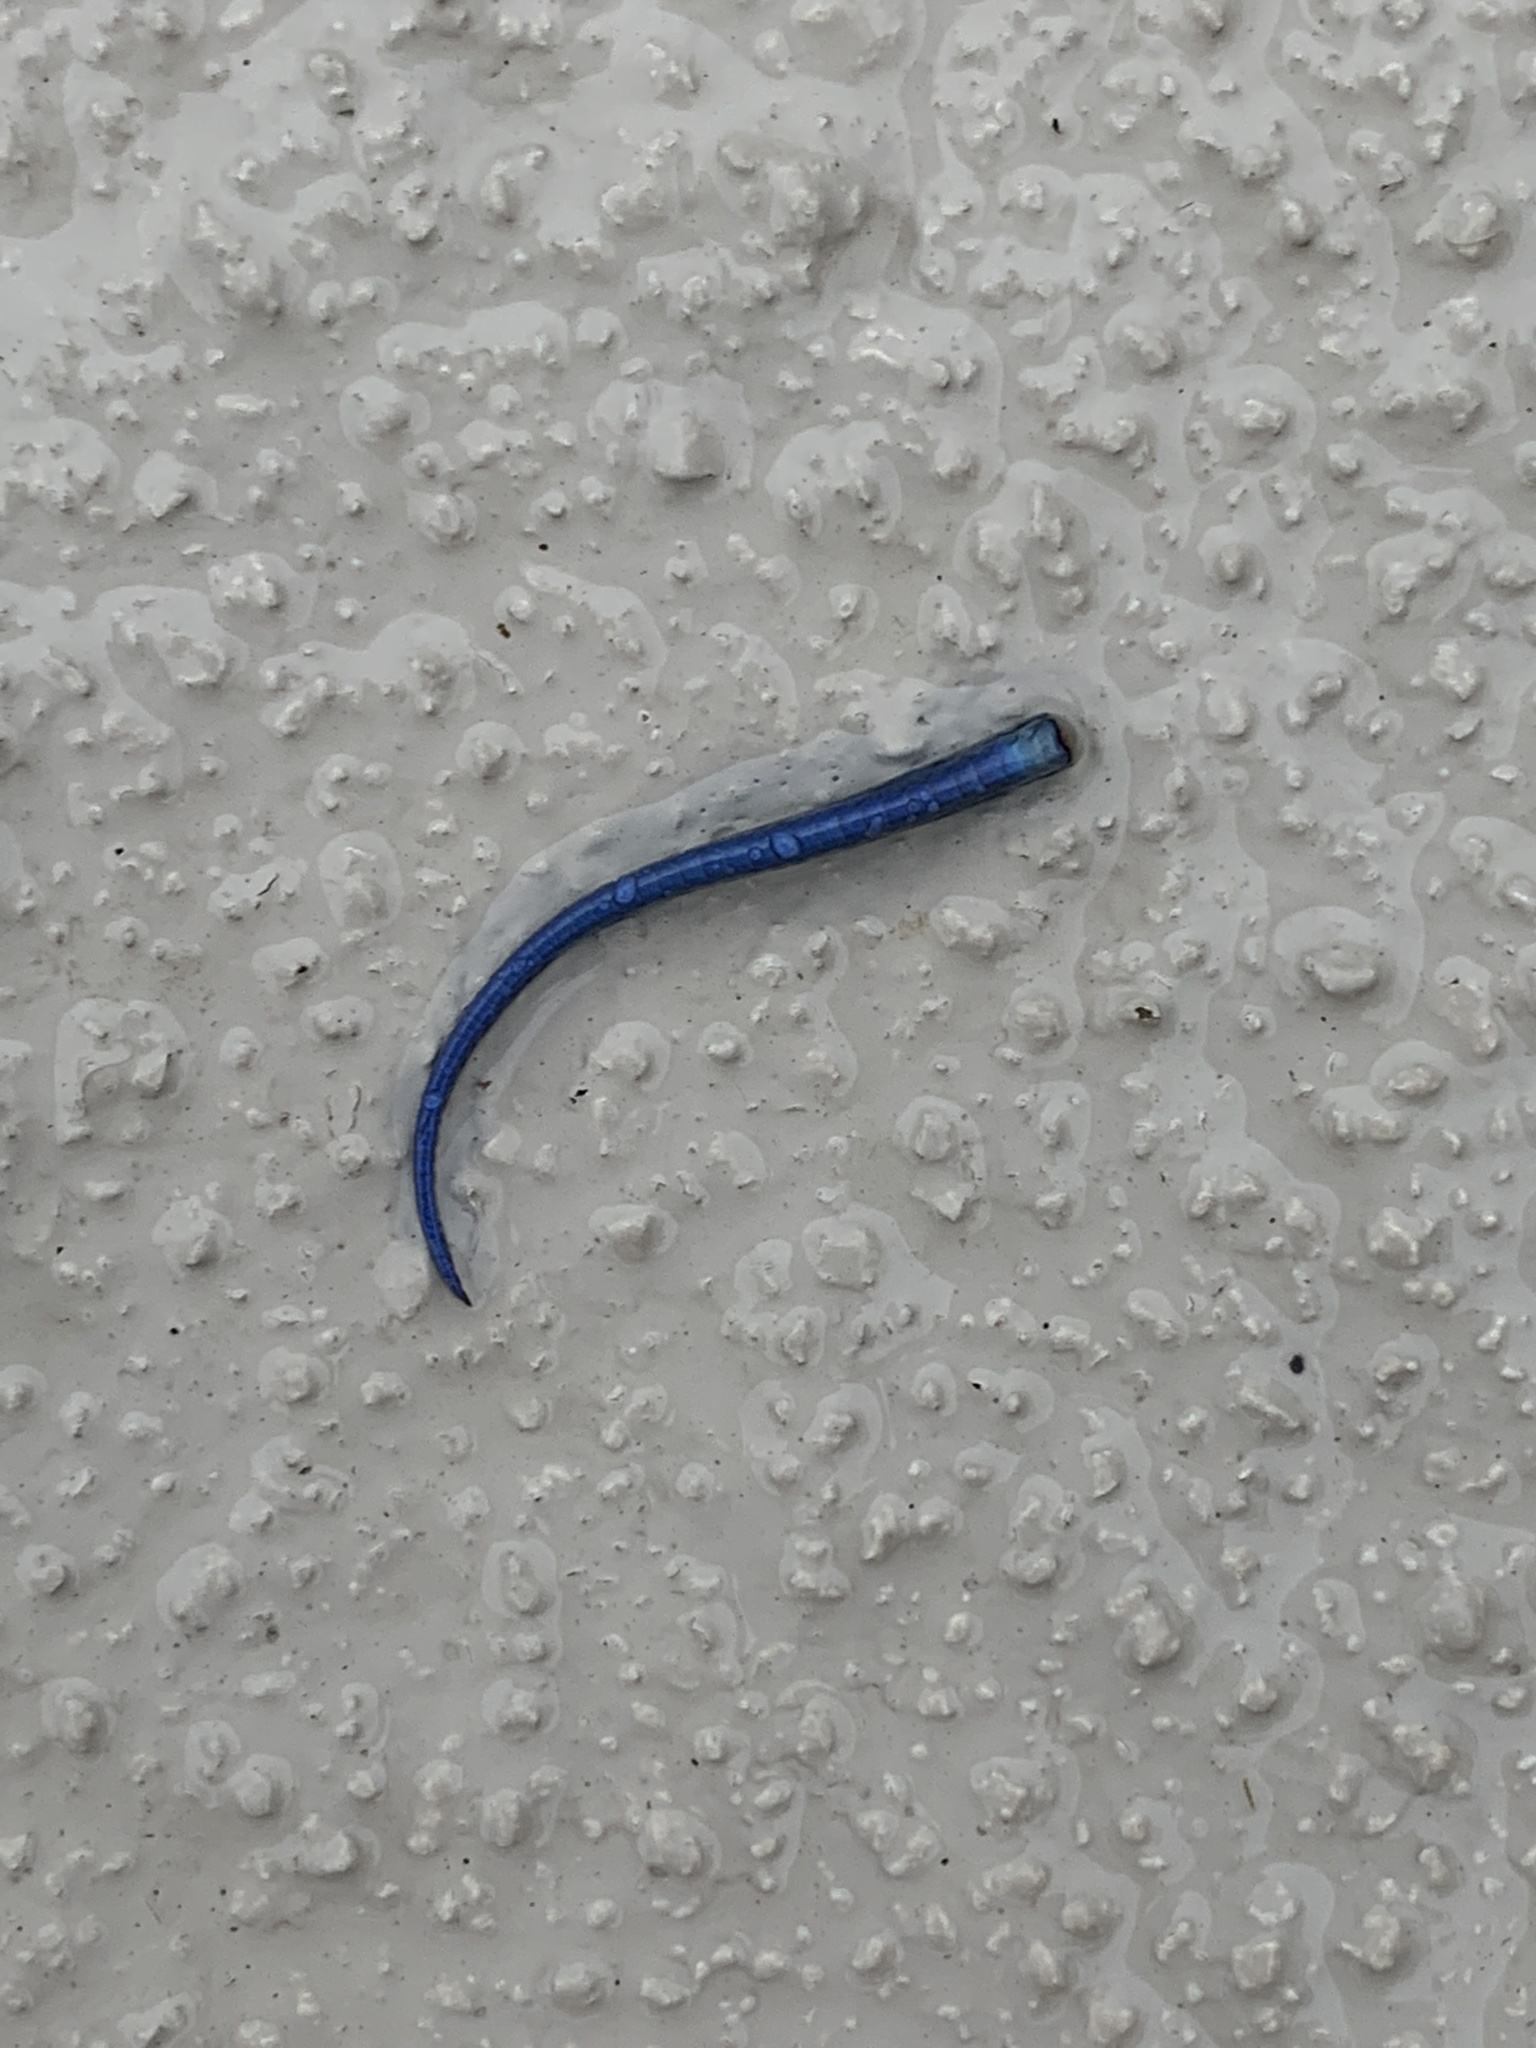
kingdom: Animalia
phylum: Chordata
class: Squamata
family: Scincidae
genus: Plestiodon
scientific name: Plestiodon
